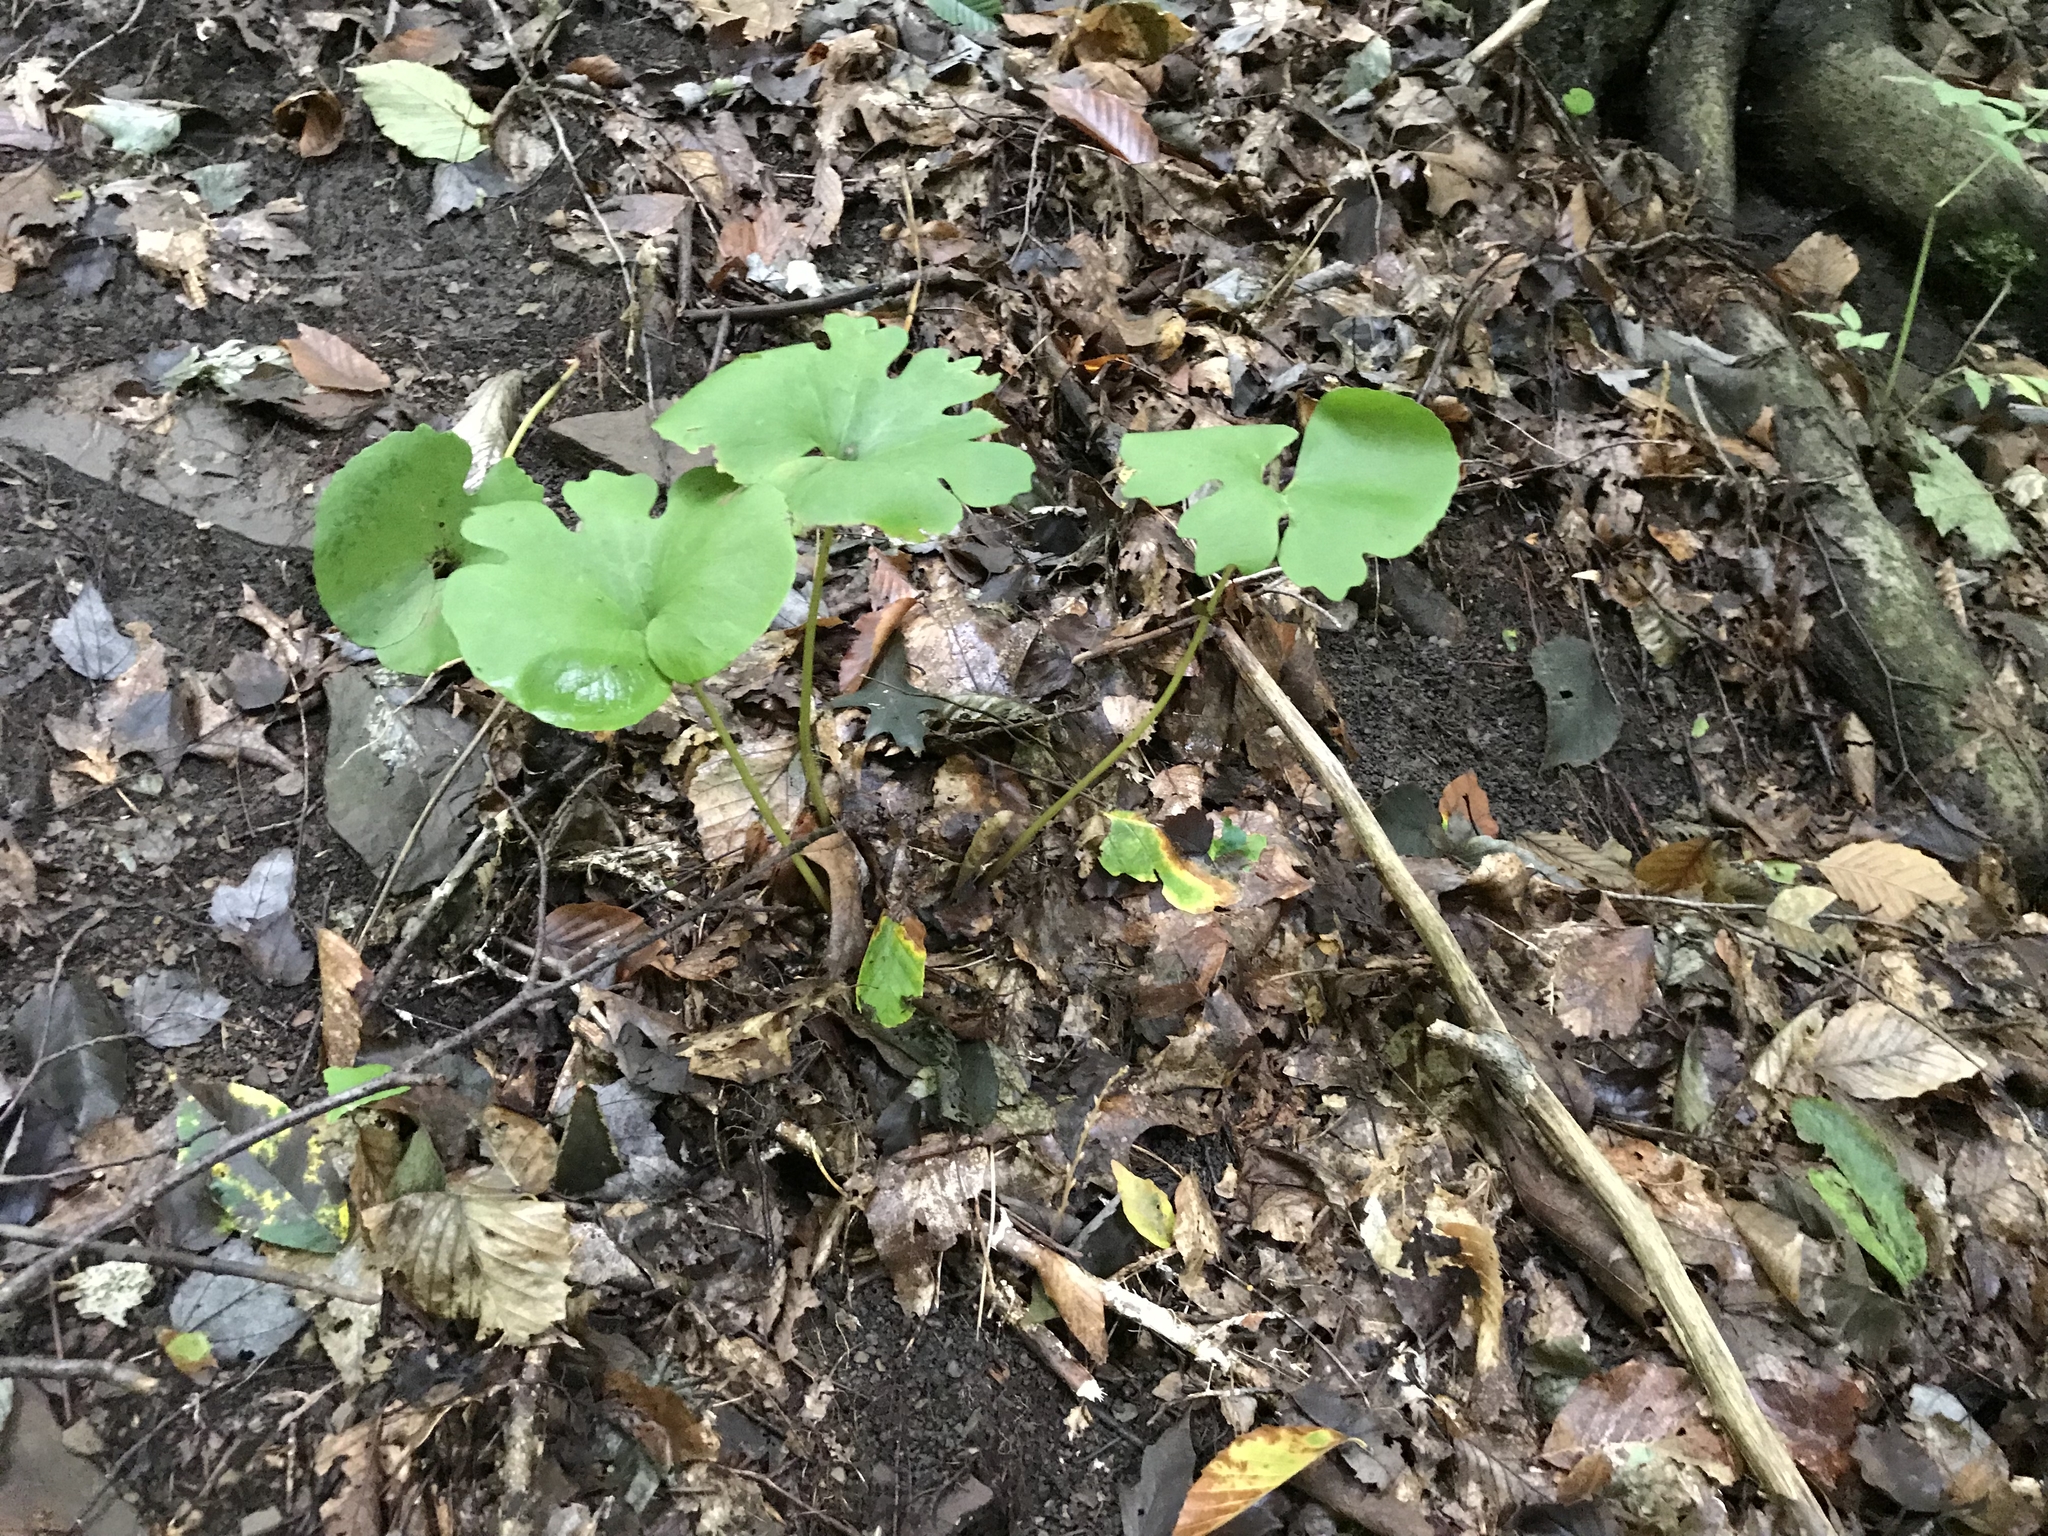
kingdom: Plantae
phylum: Tracheophyta
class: Magnoliopsida
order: Ranunculales
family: Papaveraceae
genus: Sanguinaria
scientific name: Sanguinaria canadensis
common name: Bloodroot
